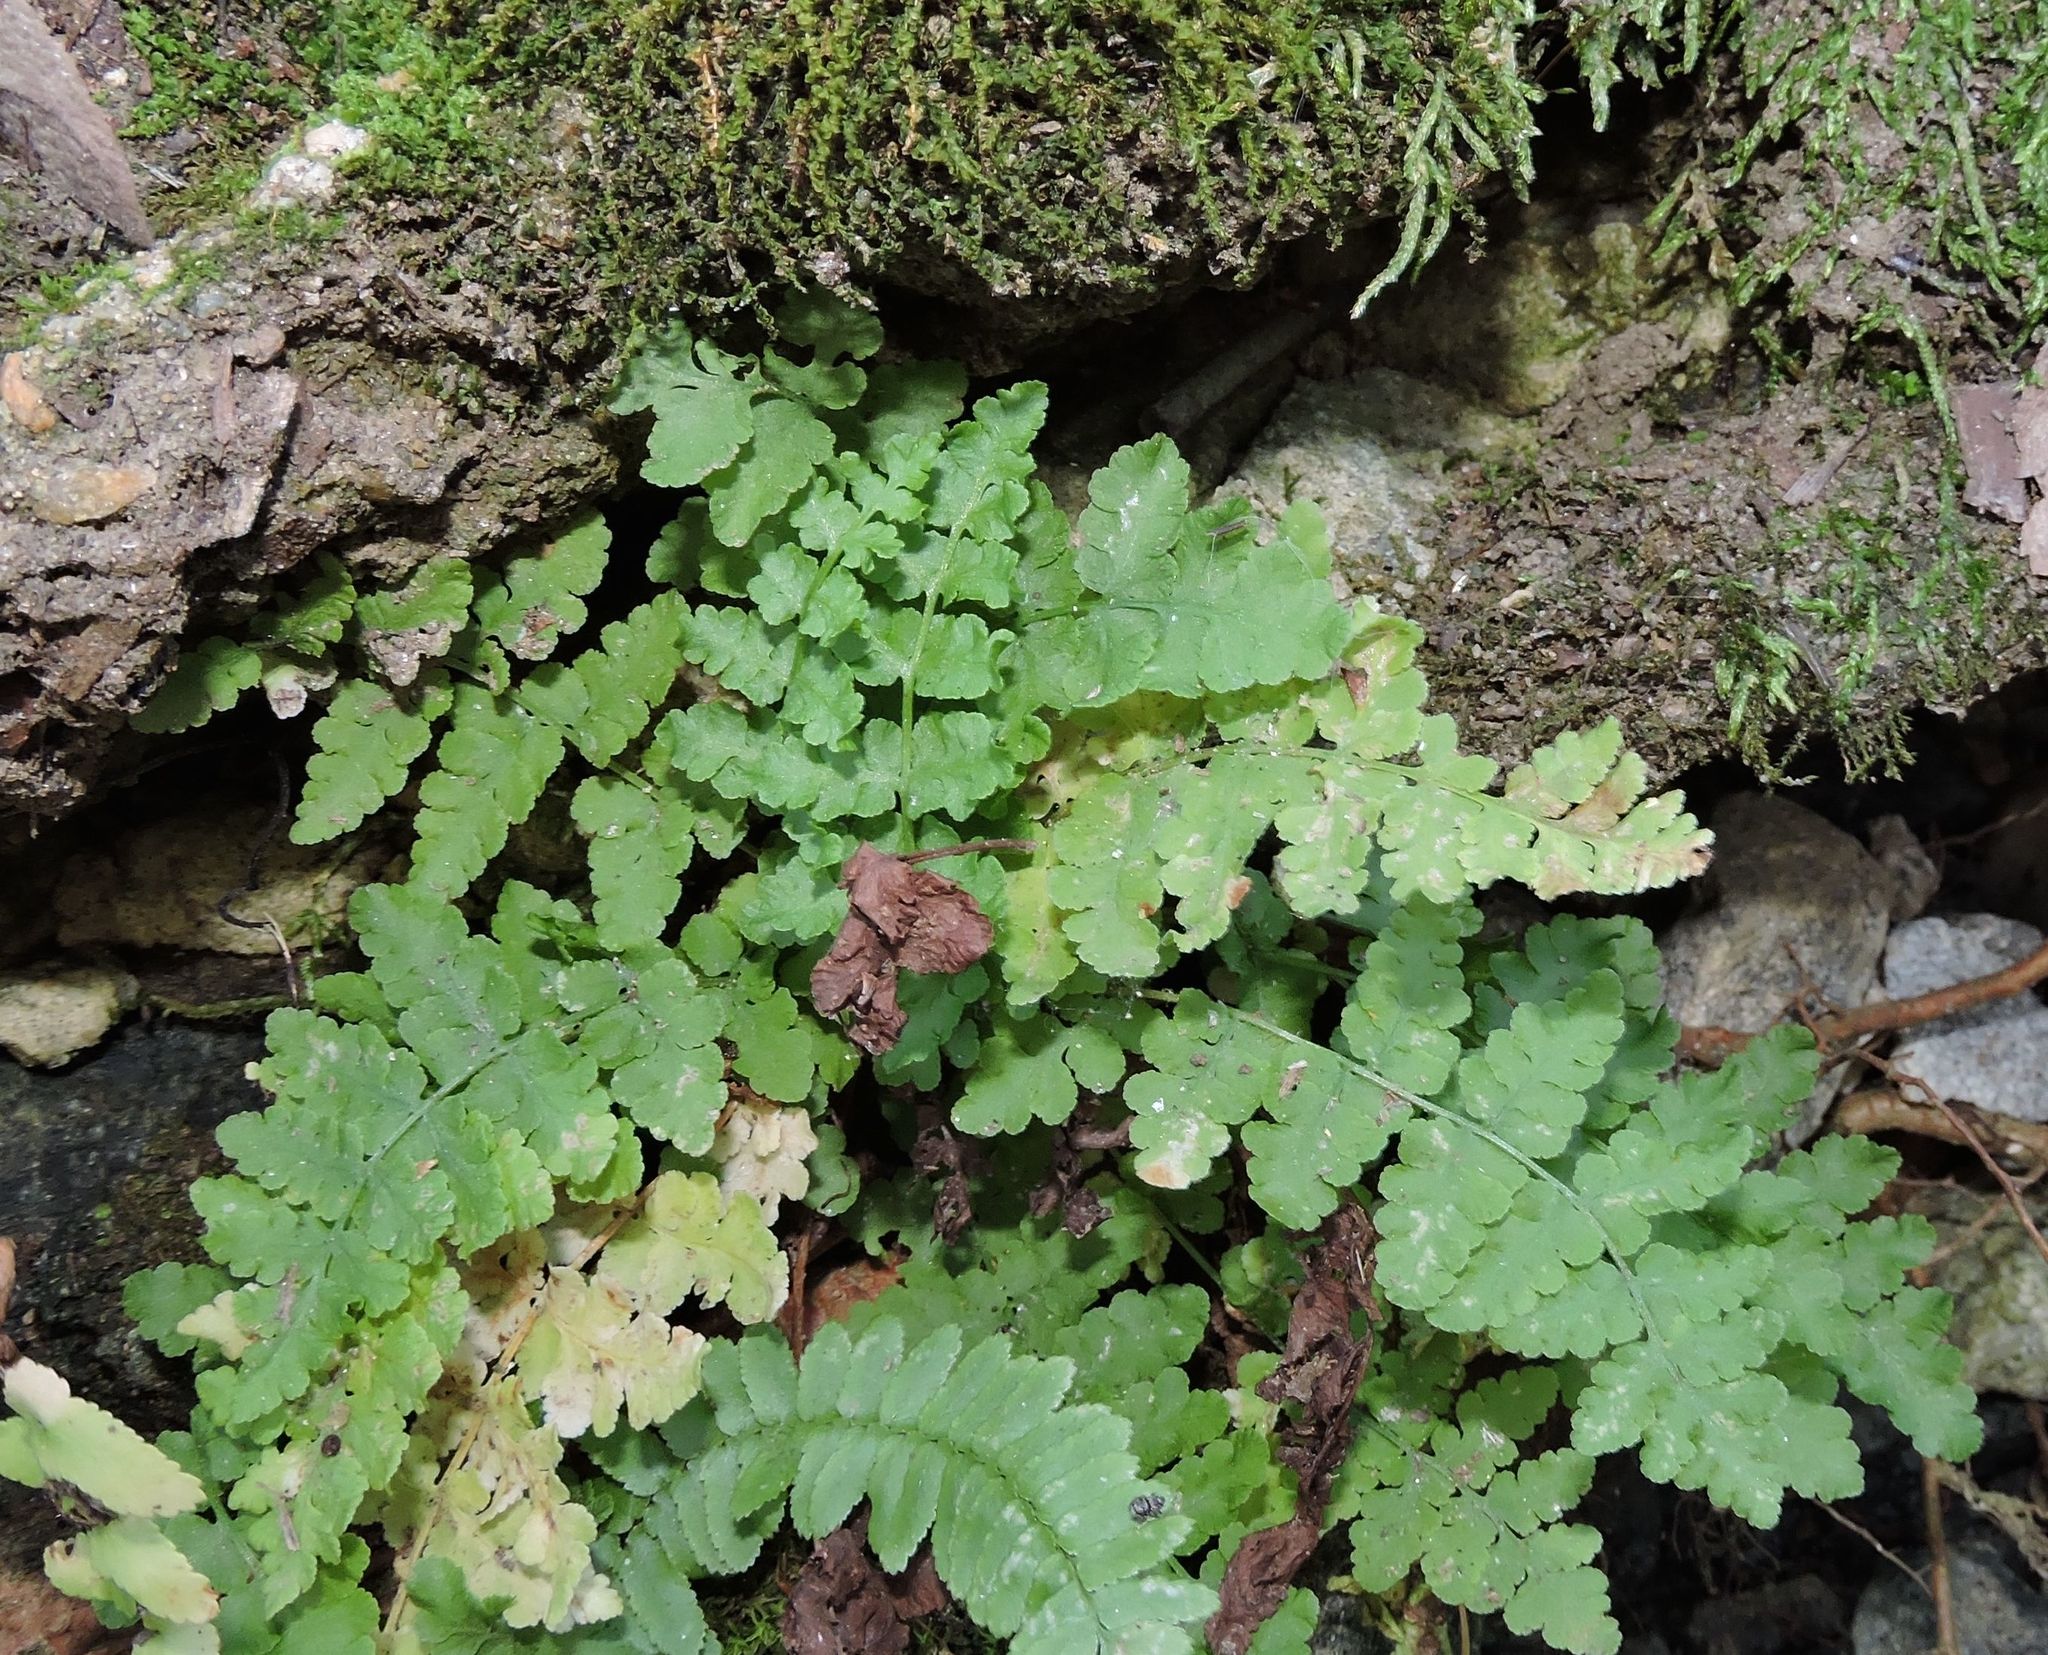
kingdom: Plantae
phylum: Tracheophyta
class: Polypodiopsida
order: Polypodiales
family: Woodsiaceae
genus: Physematium
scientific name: Physematium obtusum
